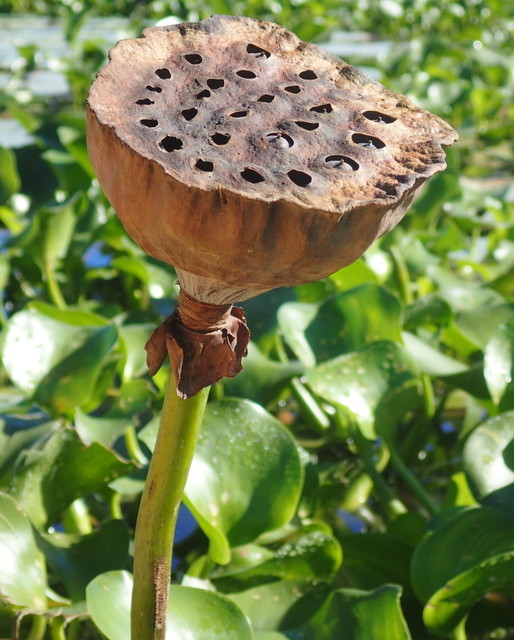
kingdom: Plantae
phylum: Tracheophyta
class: Magnoliopsida
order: Proteales
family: Nelumbonaceae
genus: Nelumbo
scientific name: Nelumbo lutea
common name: American lotus
